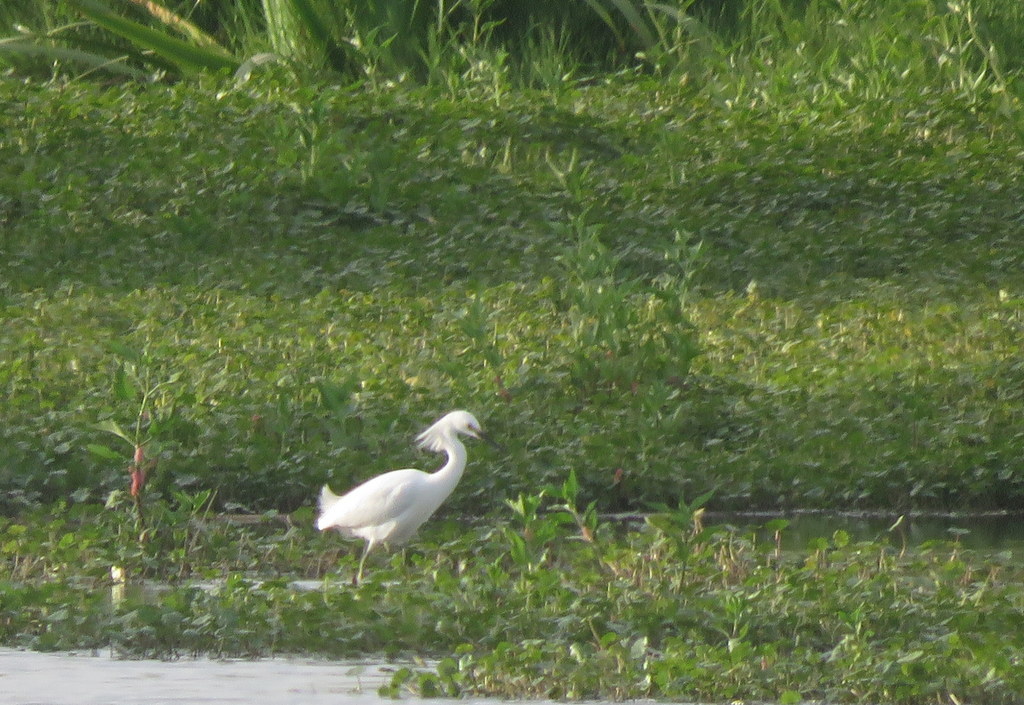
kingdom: Animalia
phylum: Chordata
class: Aves
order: Pelecaniformes
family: Ardeidae
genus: Egretta
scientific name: Egretta thula
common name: Snowy egret
